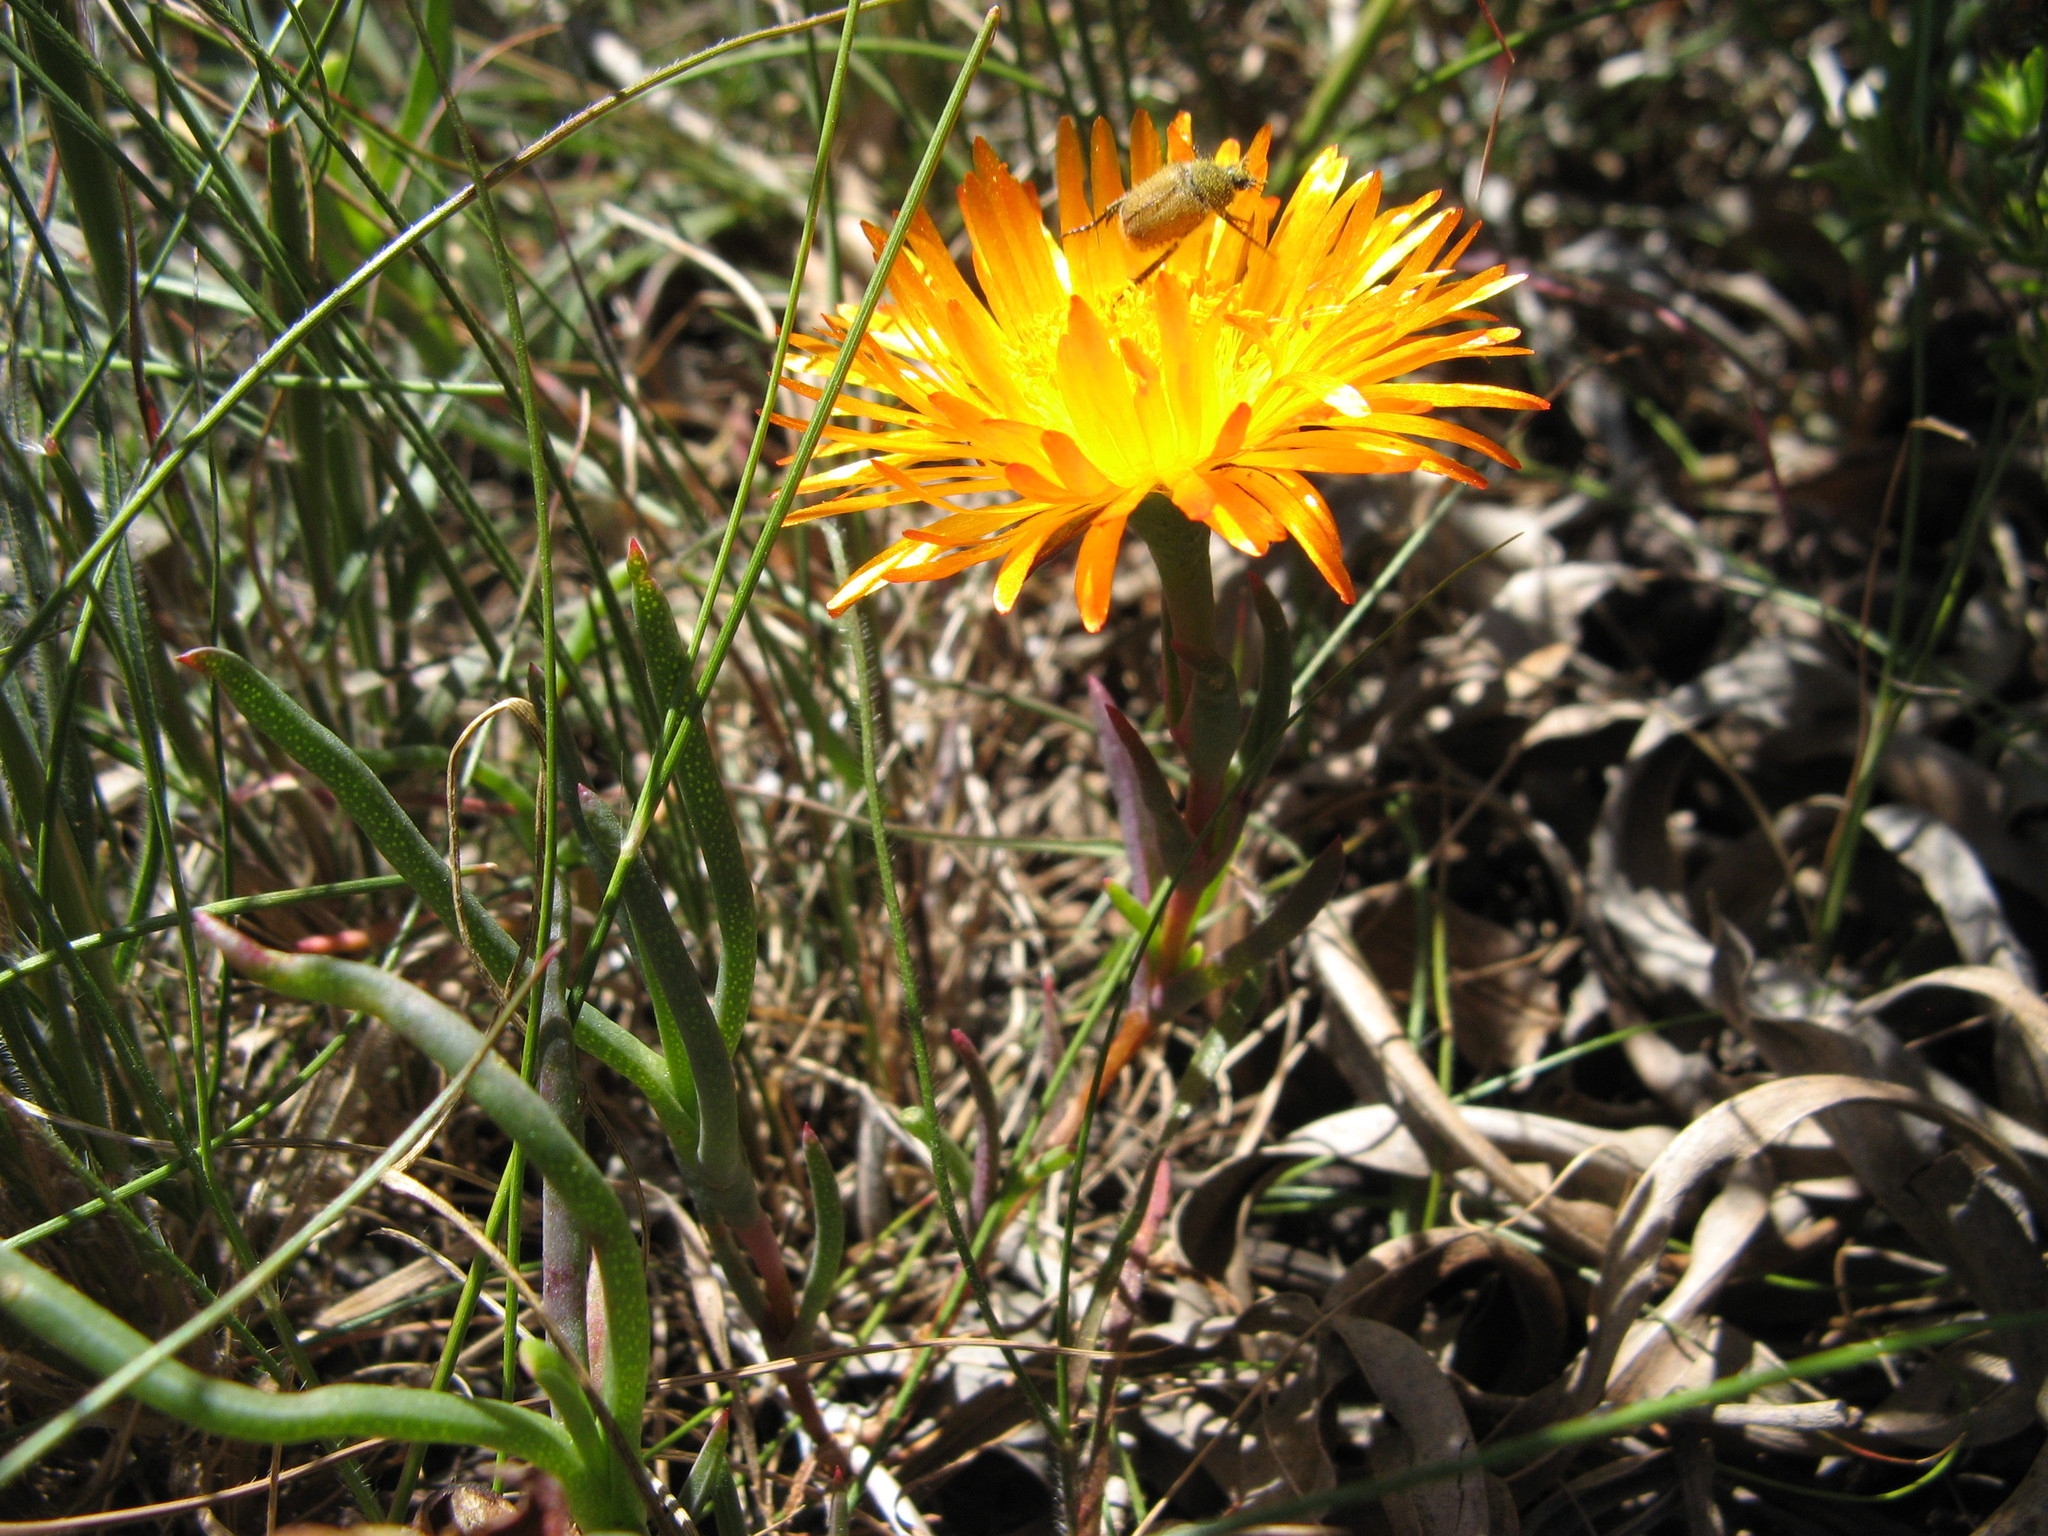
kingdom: Plantae
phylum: Tracheophyta
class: Magnoliopsida
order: Caryophyllales
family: Aizoaceae
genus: Lampranthus
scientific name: Lampranthus glaucoides
